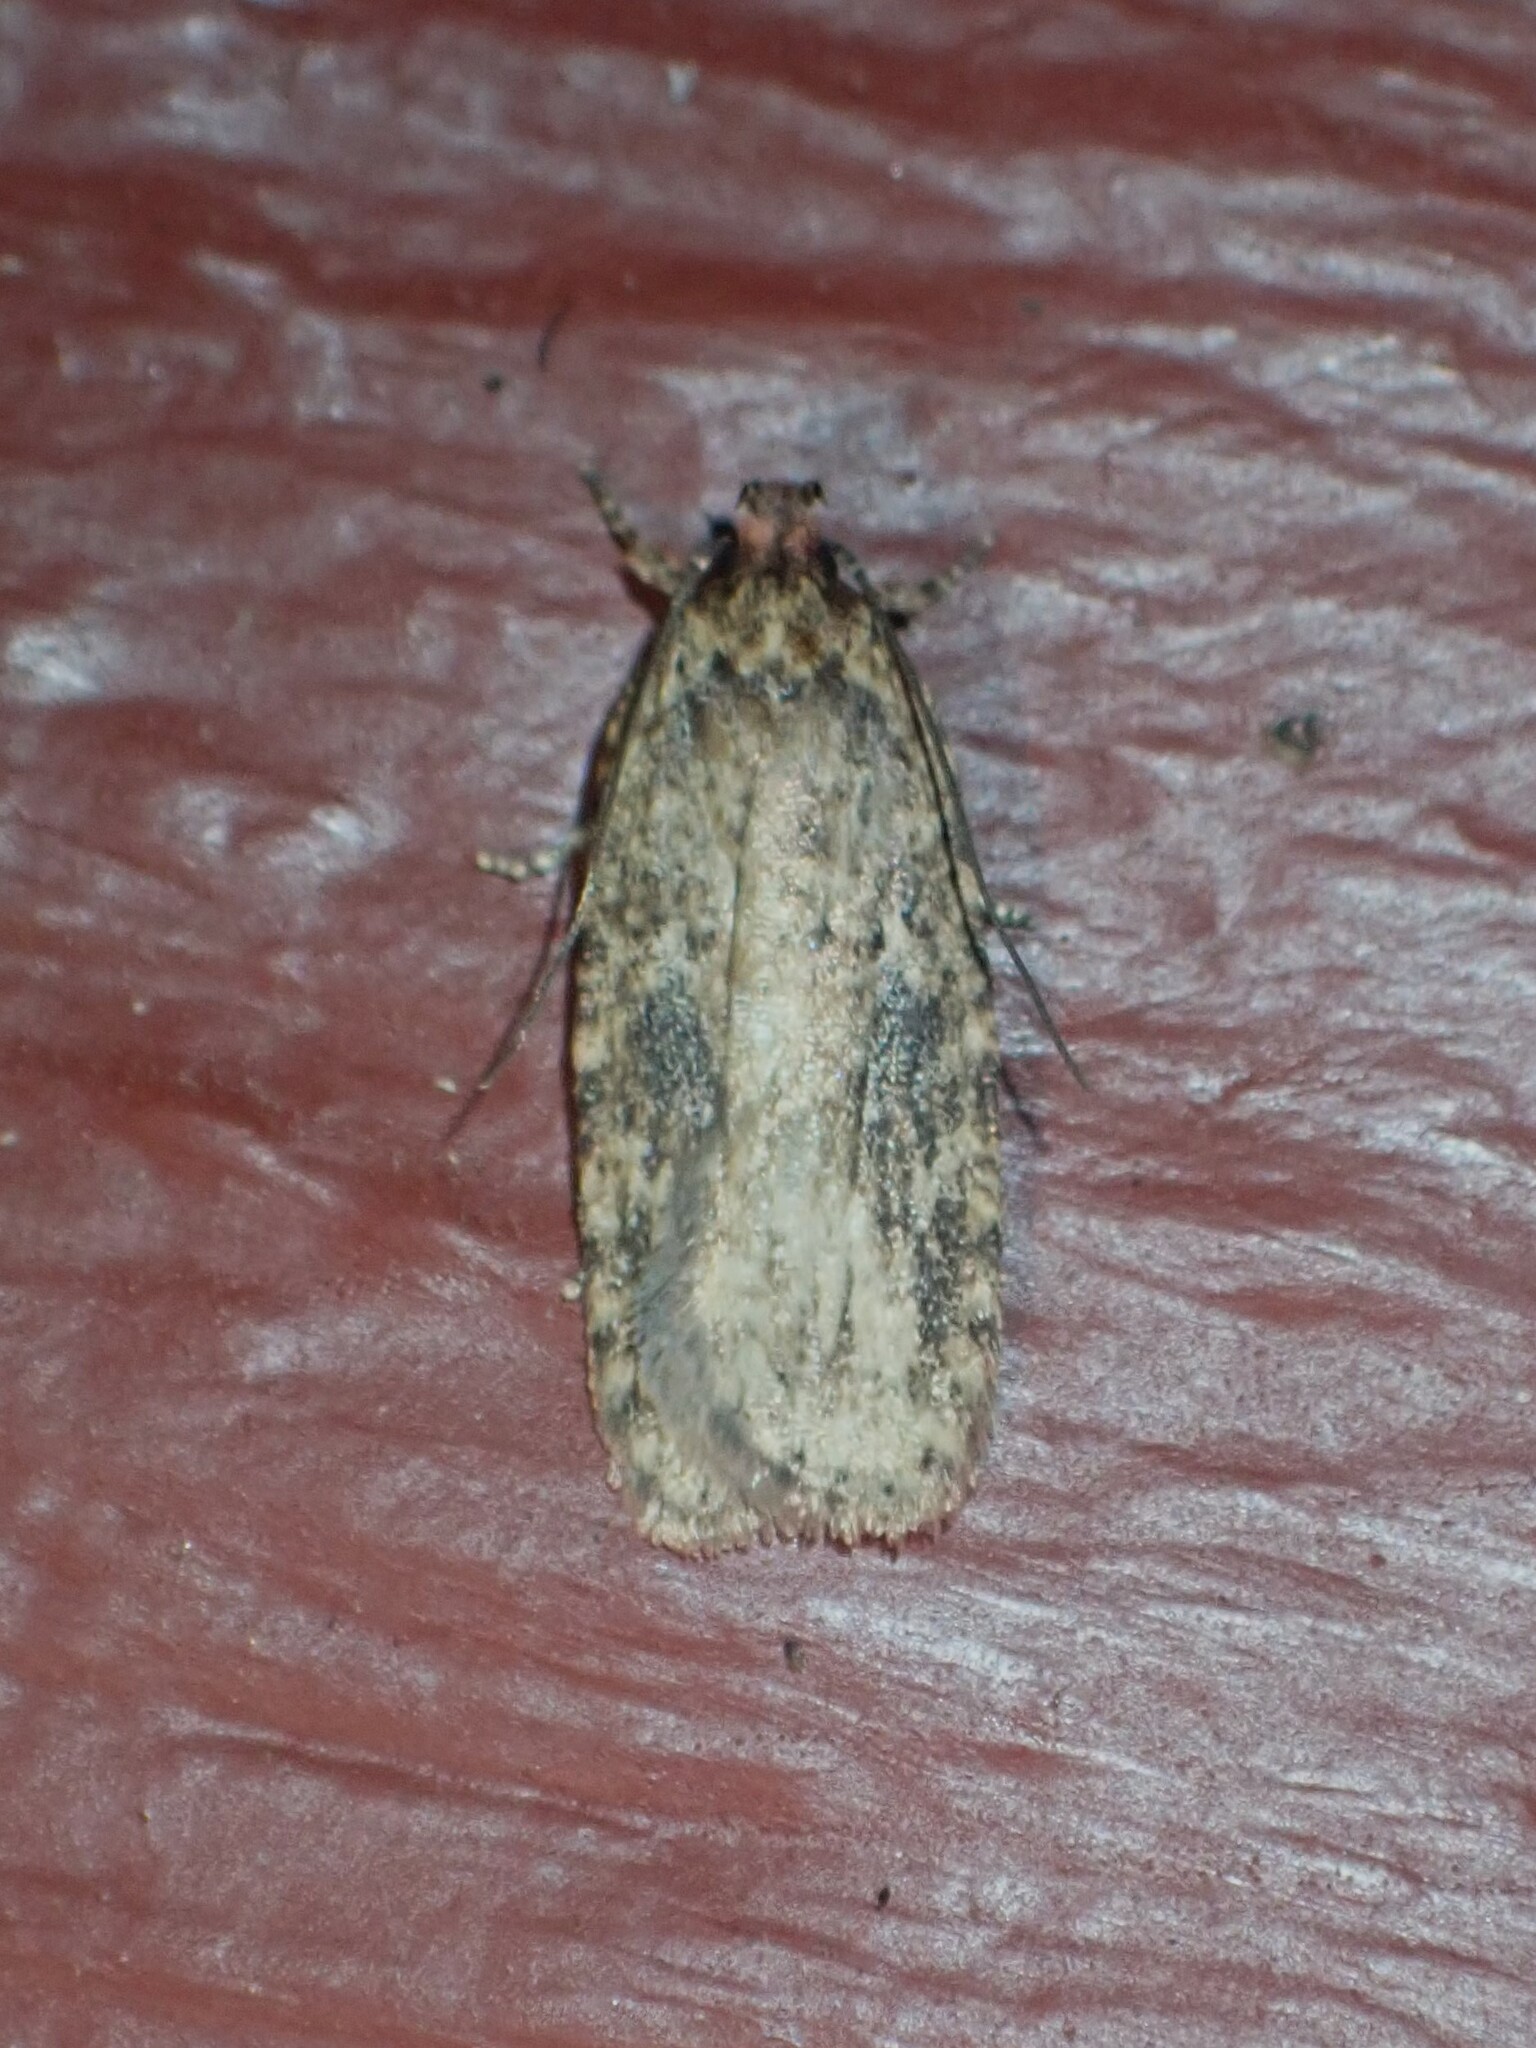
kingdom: Animalia
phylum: Arthropoda
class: Insecta
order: Lepidoptera
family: Depressariidae
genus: Agonopterix
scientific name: Agonopterix pulvipennella
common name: Goldenrod leafffolder
